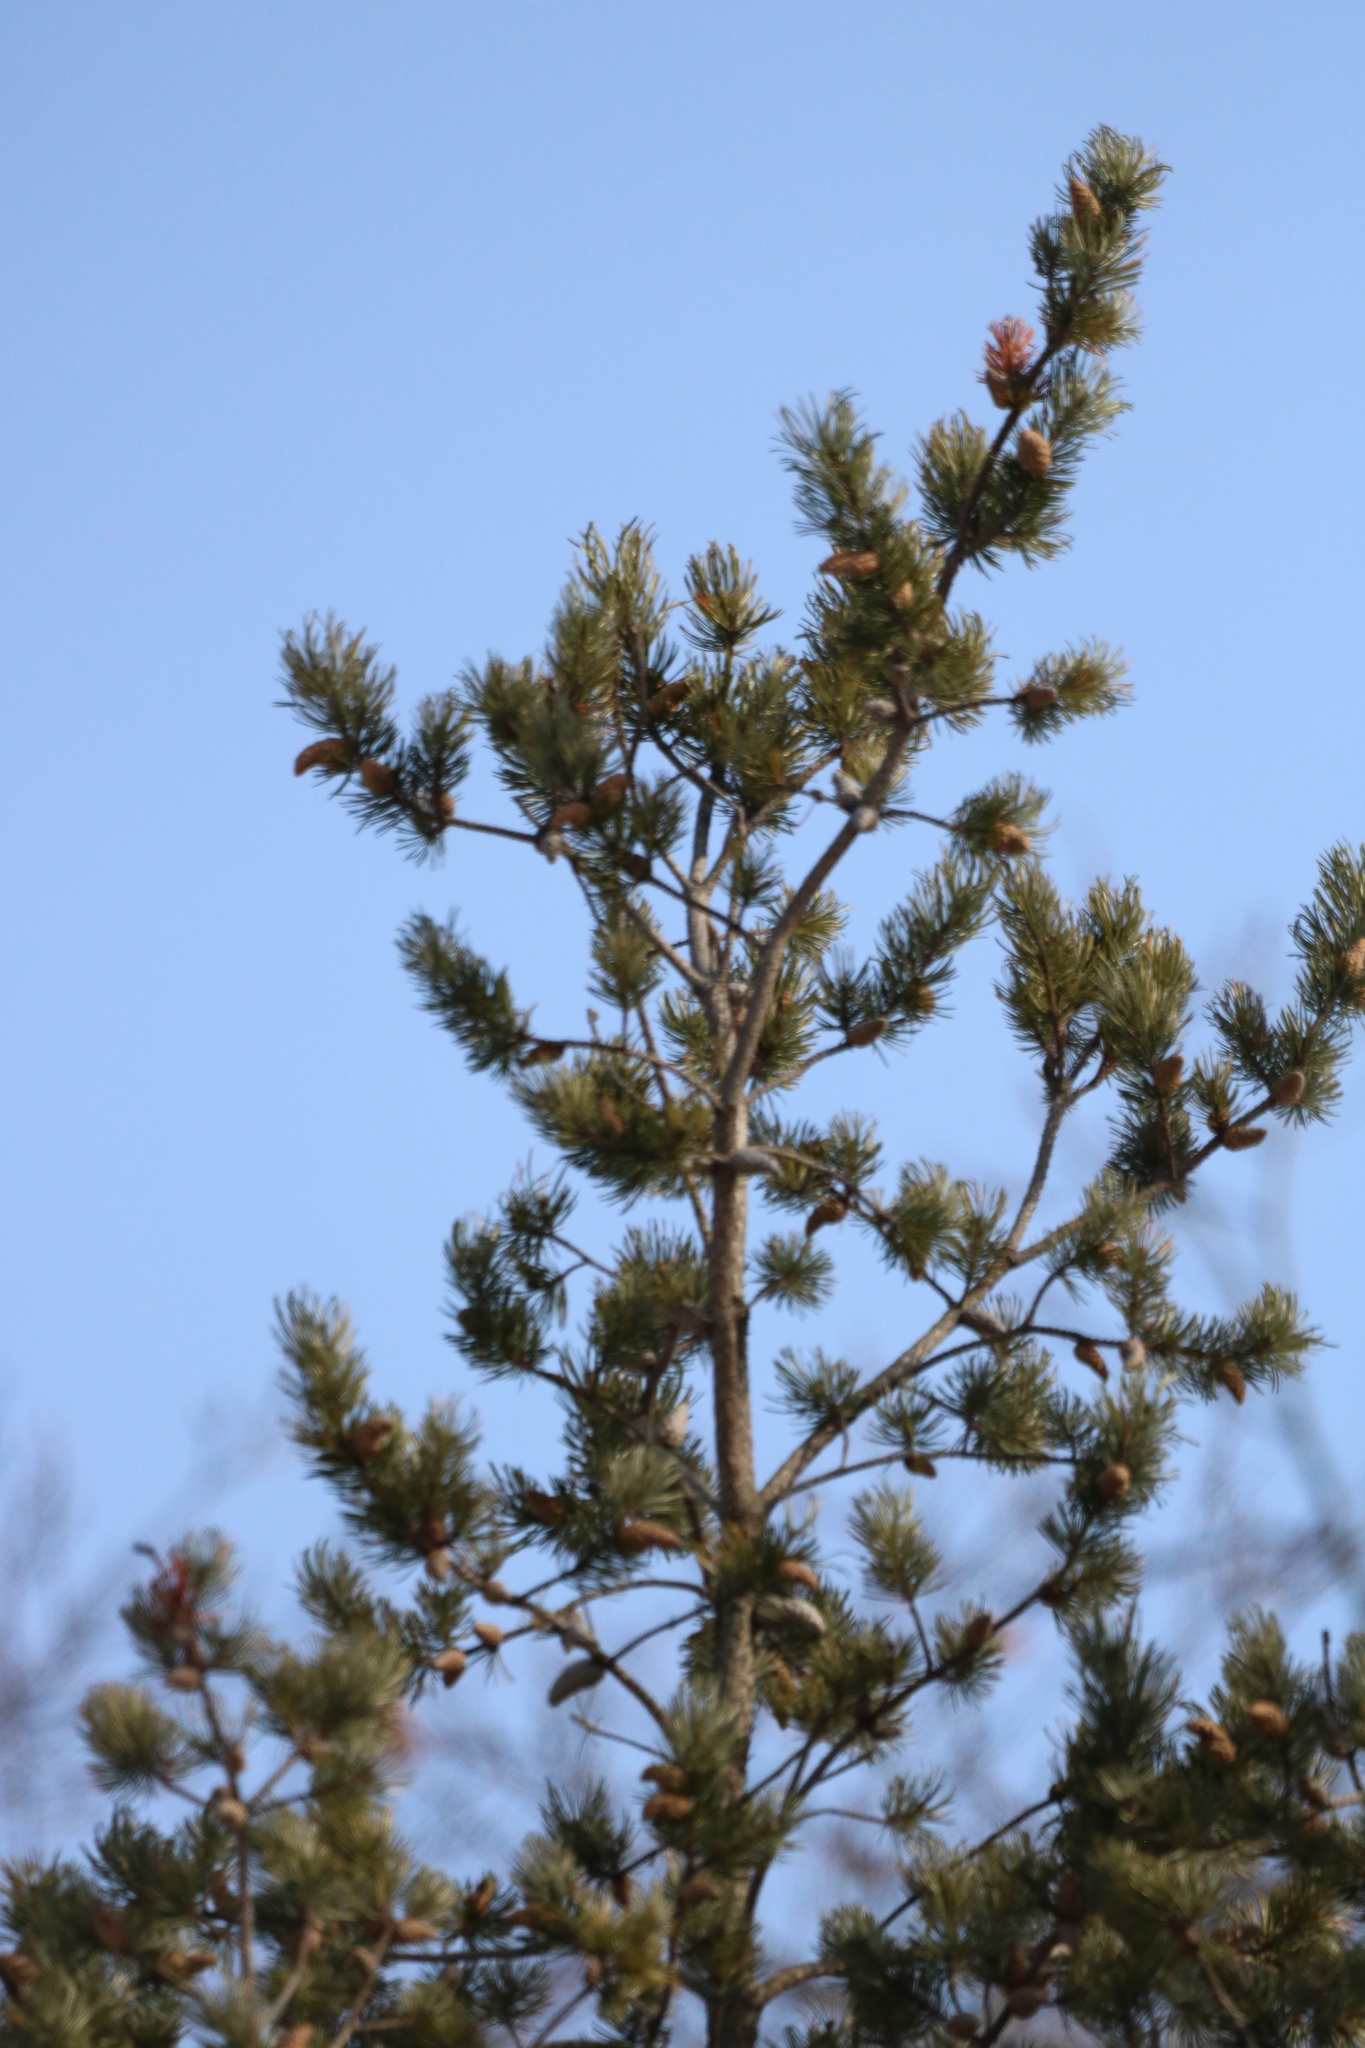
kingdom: Plantae
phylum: Tracheophyta
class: Pinopsida
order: Pinales
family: Pinaceae
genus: Pinus
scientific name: Pinus banksiana
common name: Jack pine
